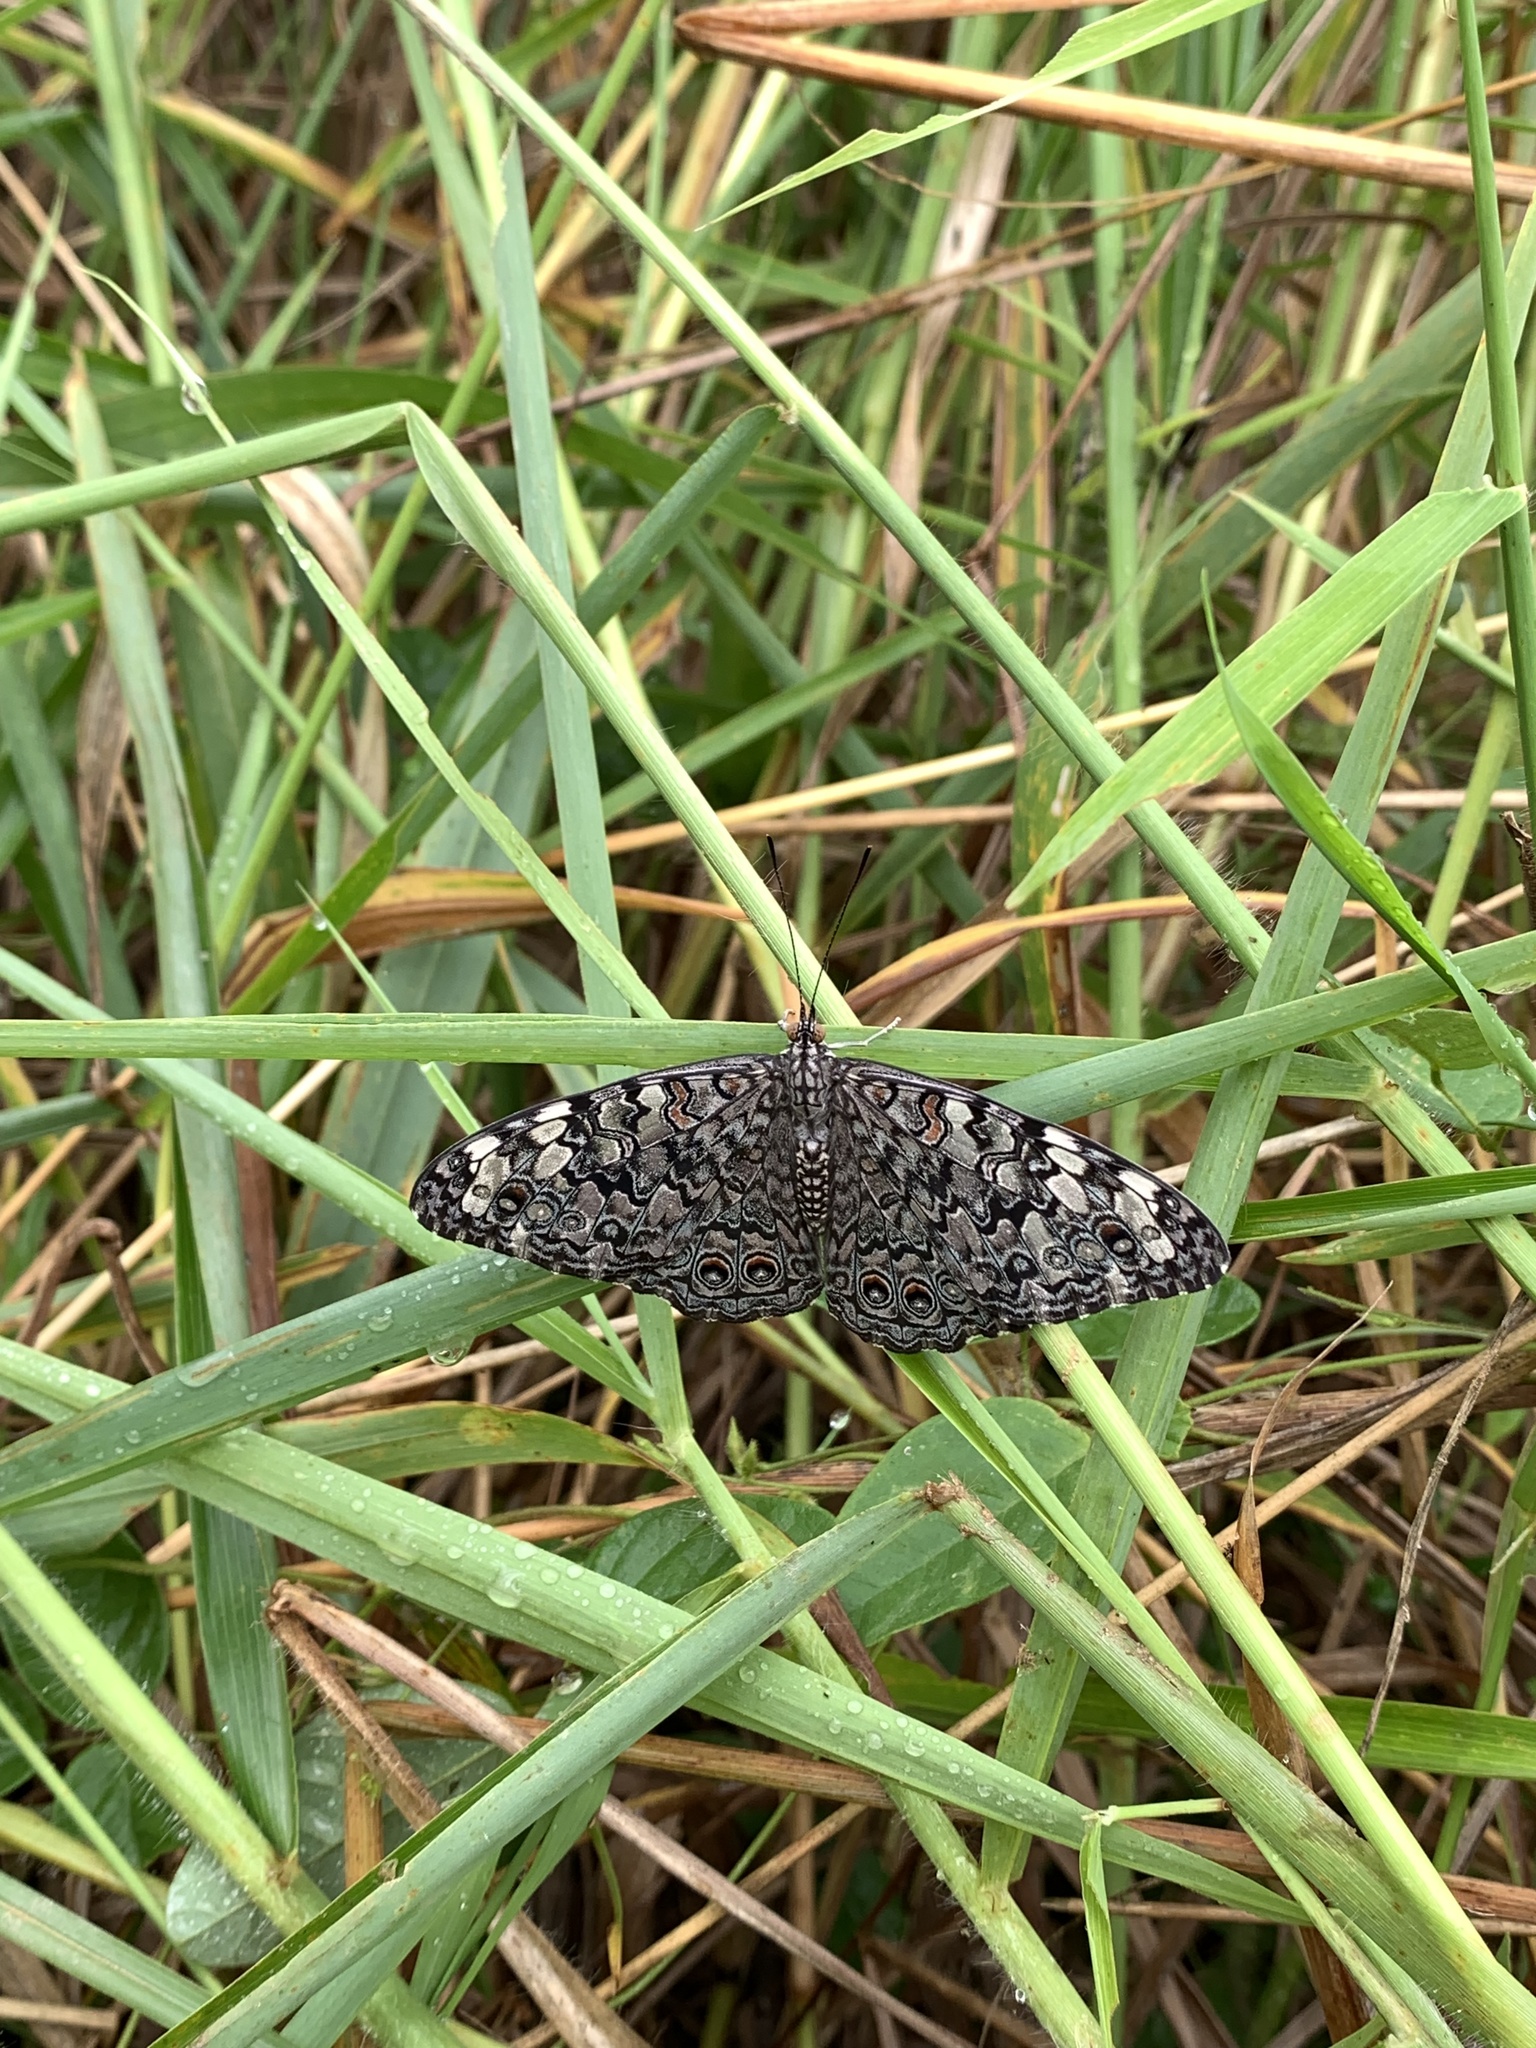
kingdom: Animalia
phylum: Arthropoda
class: Insecta
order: Lepidoptera
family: Nymphalidae
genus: Hamadryas
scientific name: Hamadryas februa
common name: Gray cracker
